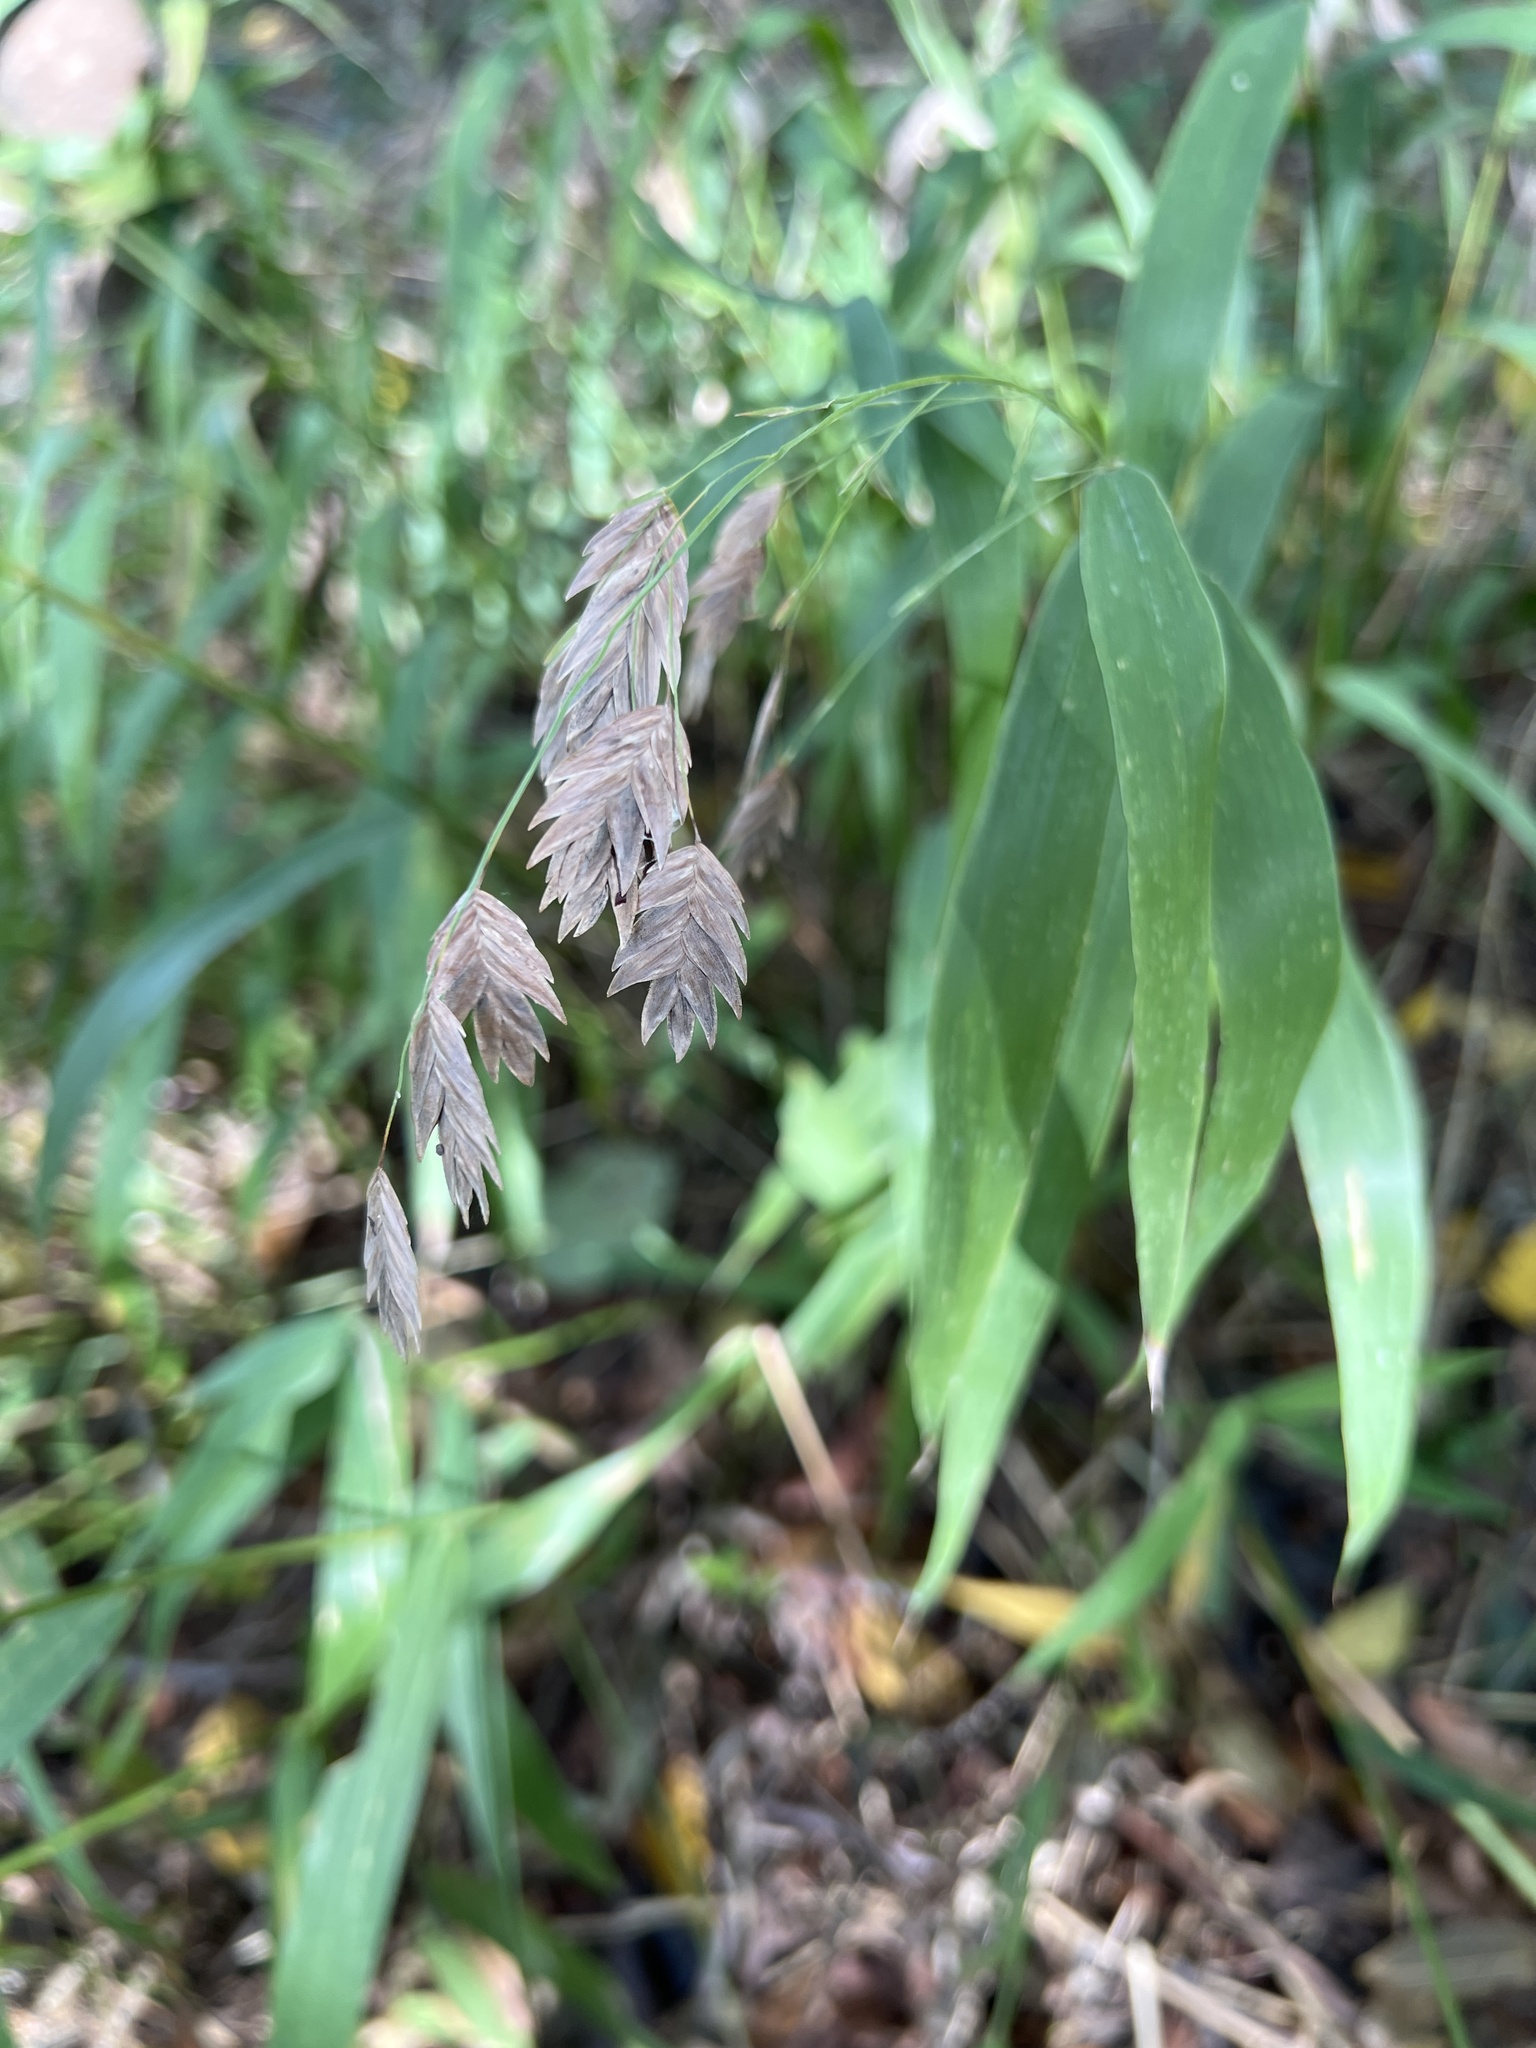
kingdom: Plantae
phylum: Tracheophyta
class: Liliopsida
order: Poales
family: Poaceae
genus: Chasmanthium
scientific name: Chasmanthium latifolium
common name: Broad-leaved chasmanthium
